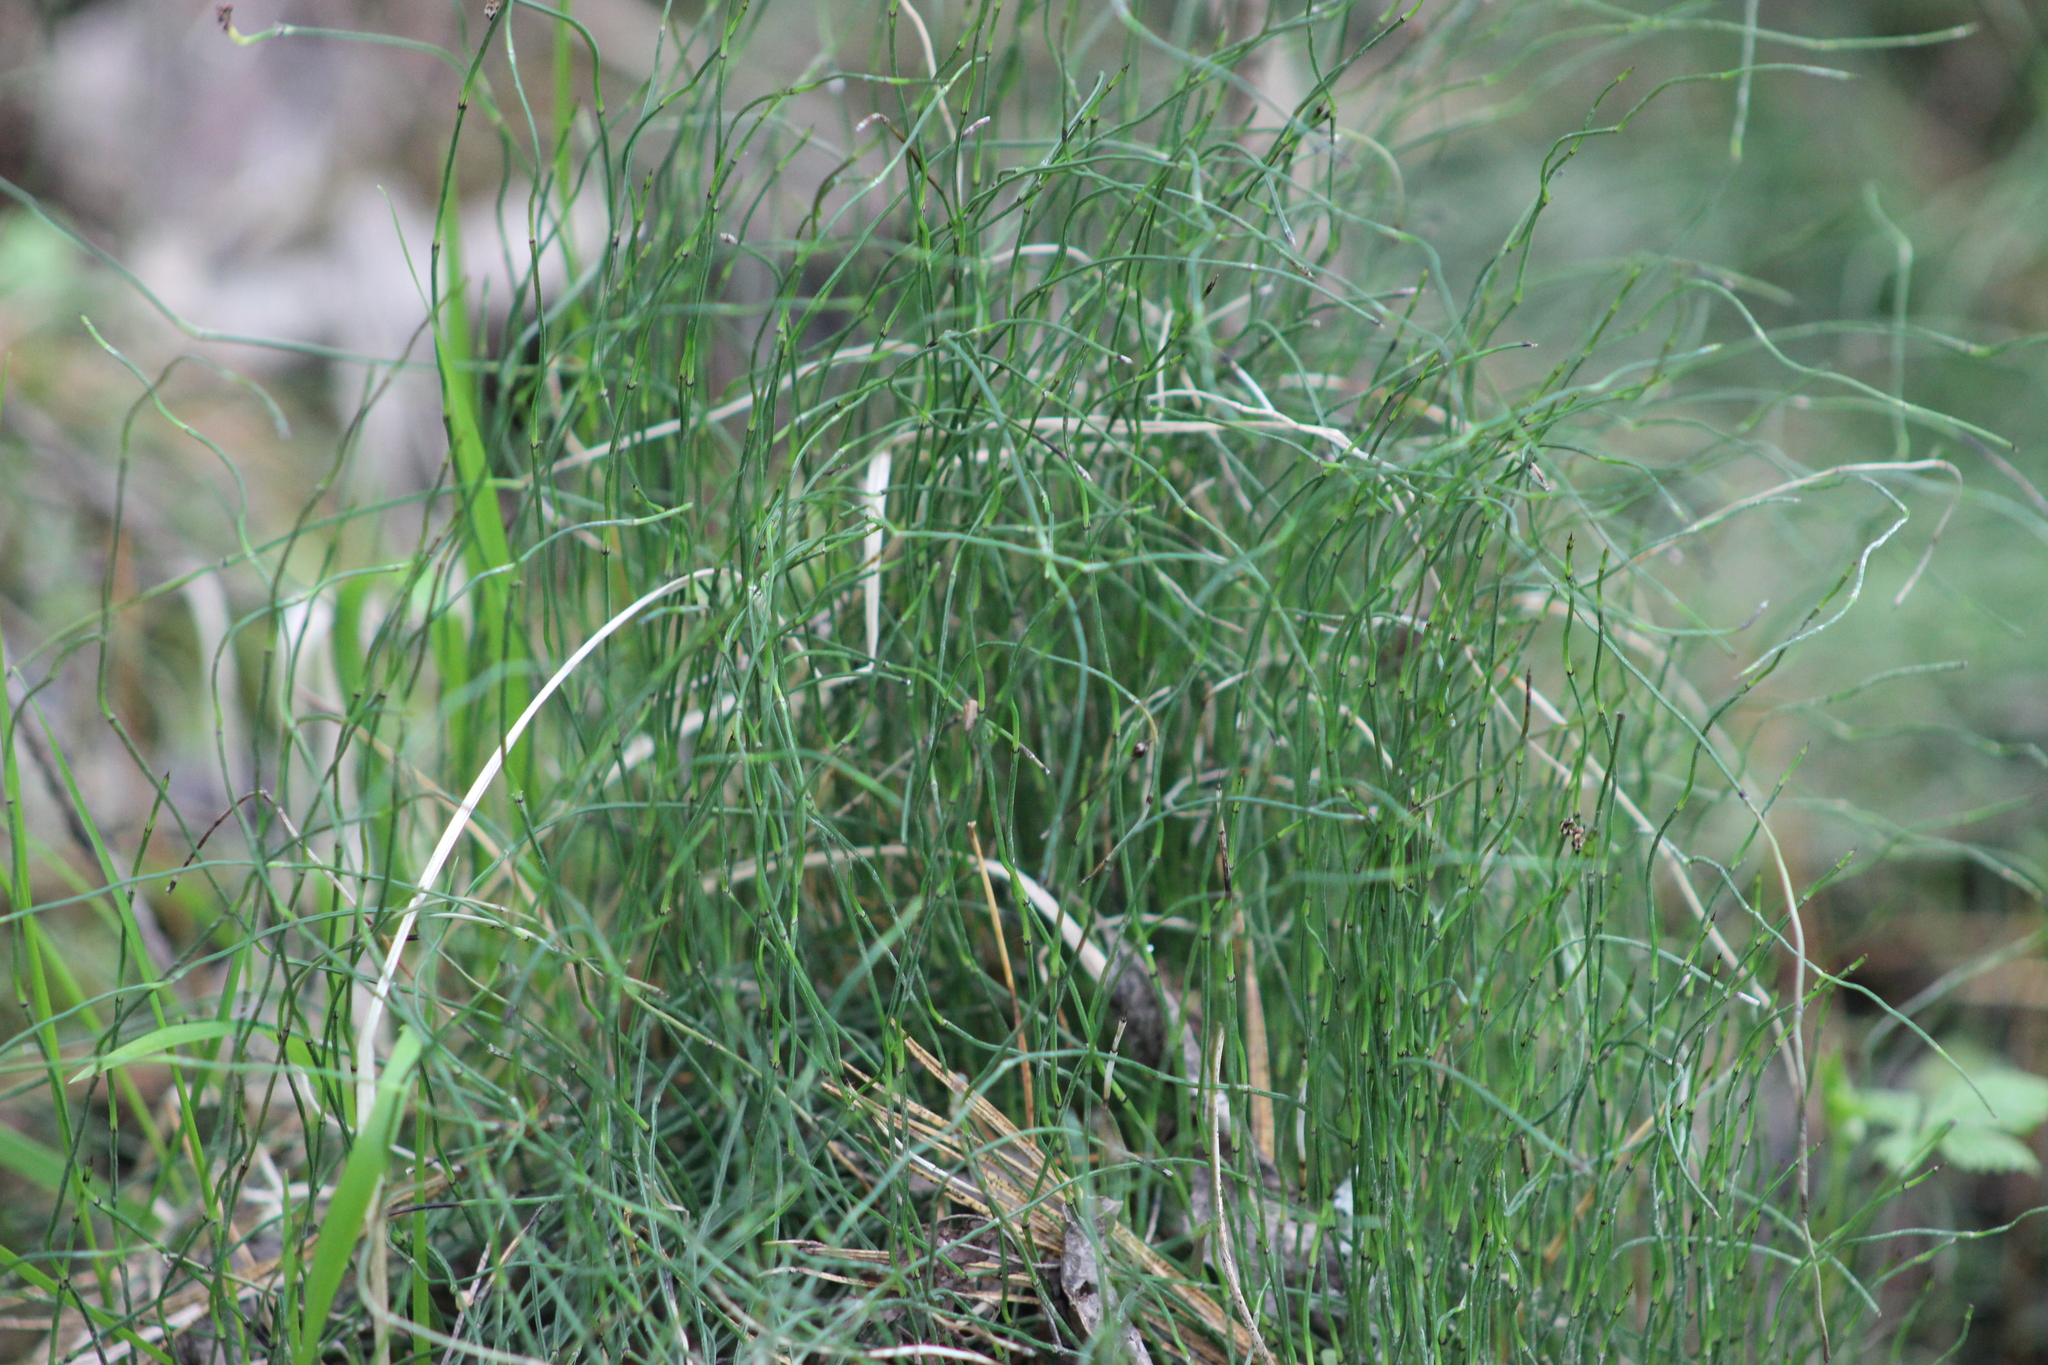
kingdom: Plantae
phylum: Tracheophyta
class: Polypodiopsida
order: Equisetales
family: Equisetaceae
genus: Equisetum
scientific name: Equisetum scirpoides
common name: Delicate horsetail
